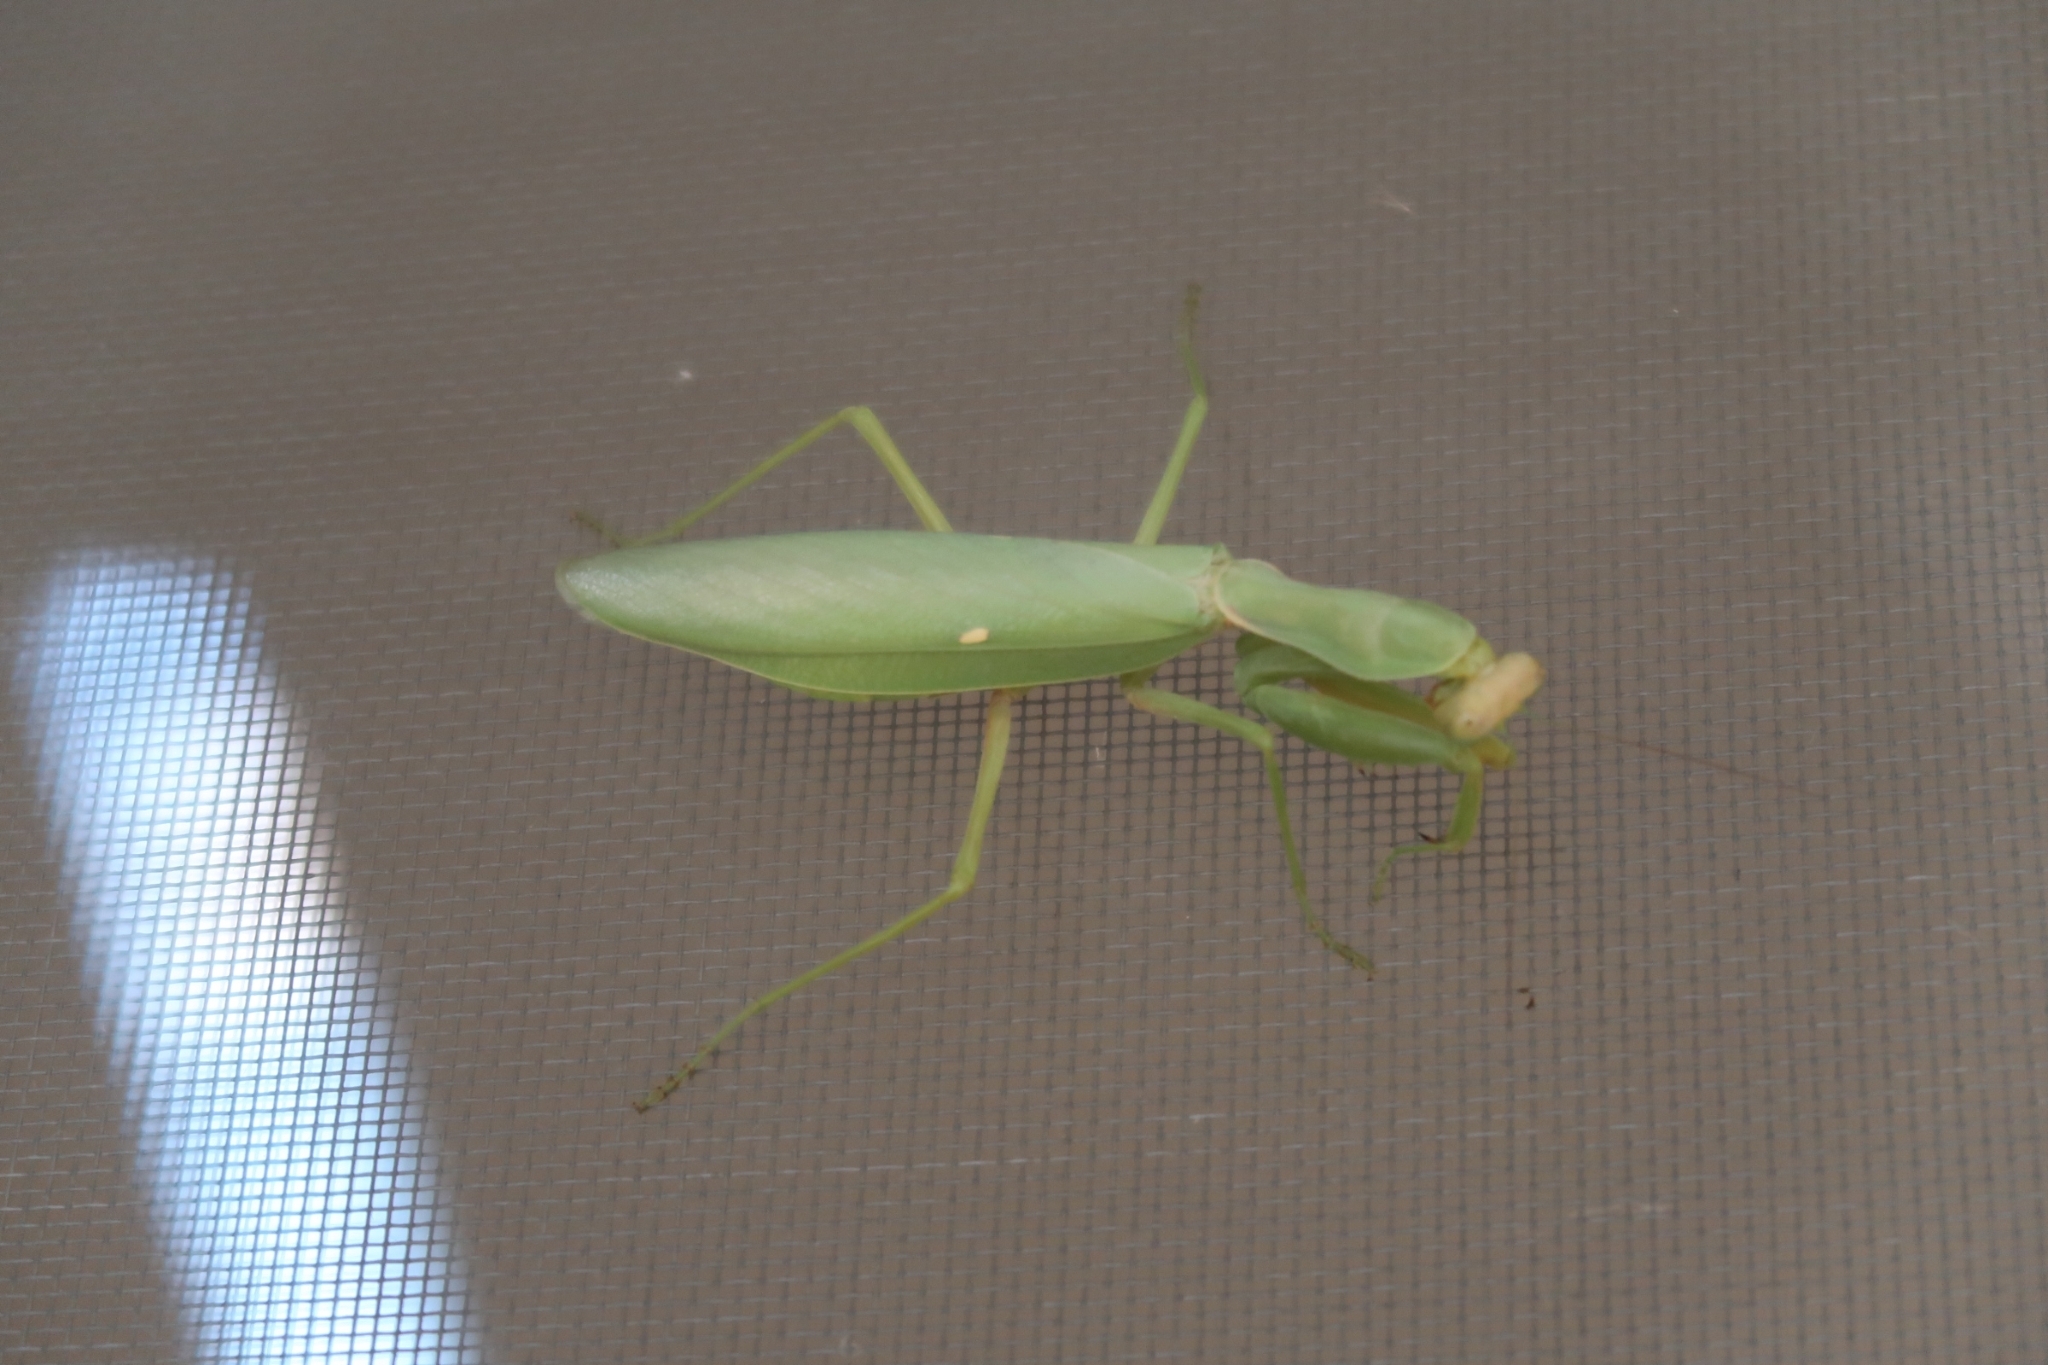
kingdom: Animalia
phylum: Arthropoda
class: Insecta
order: Mantodea
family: Mantidae
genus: Hierodula
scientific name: Hierodula transcaucasica
